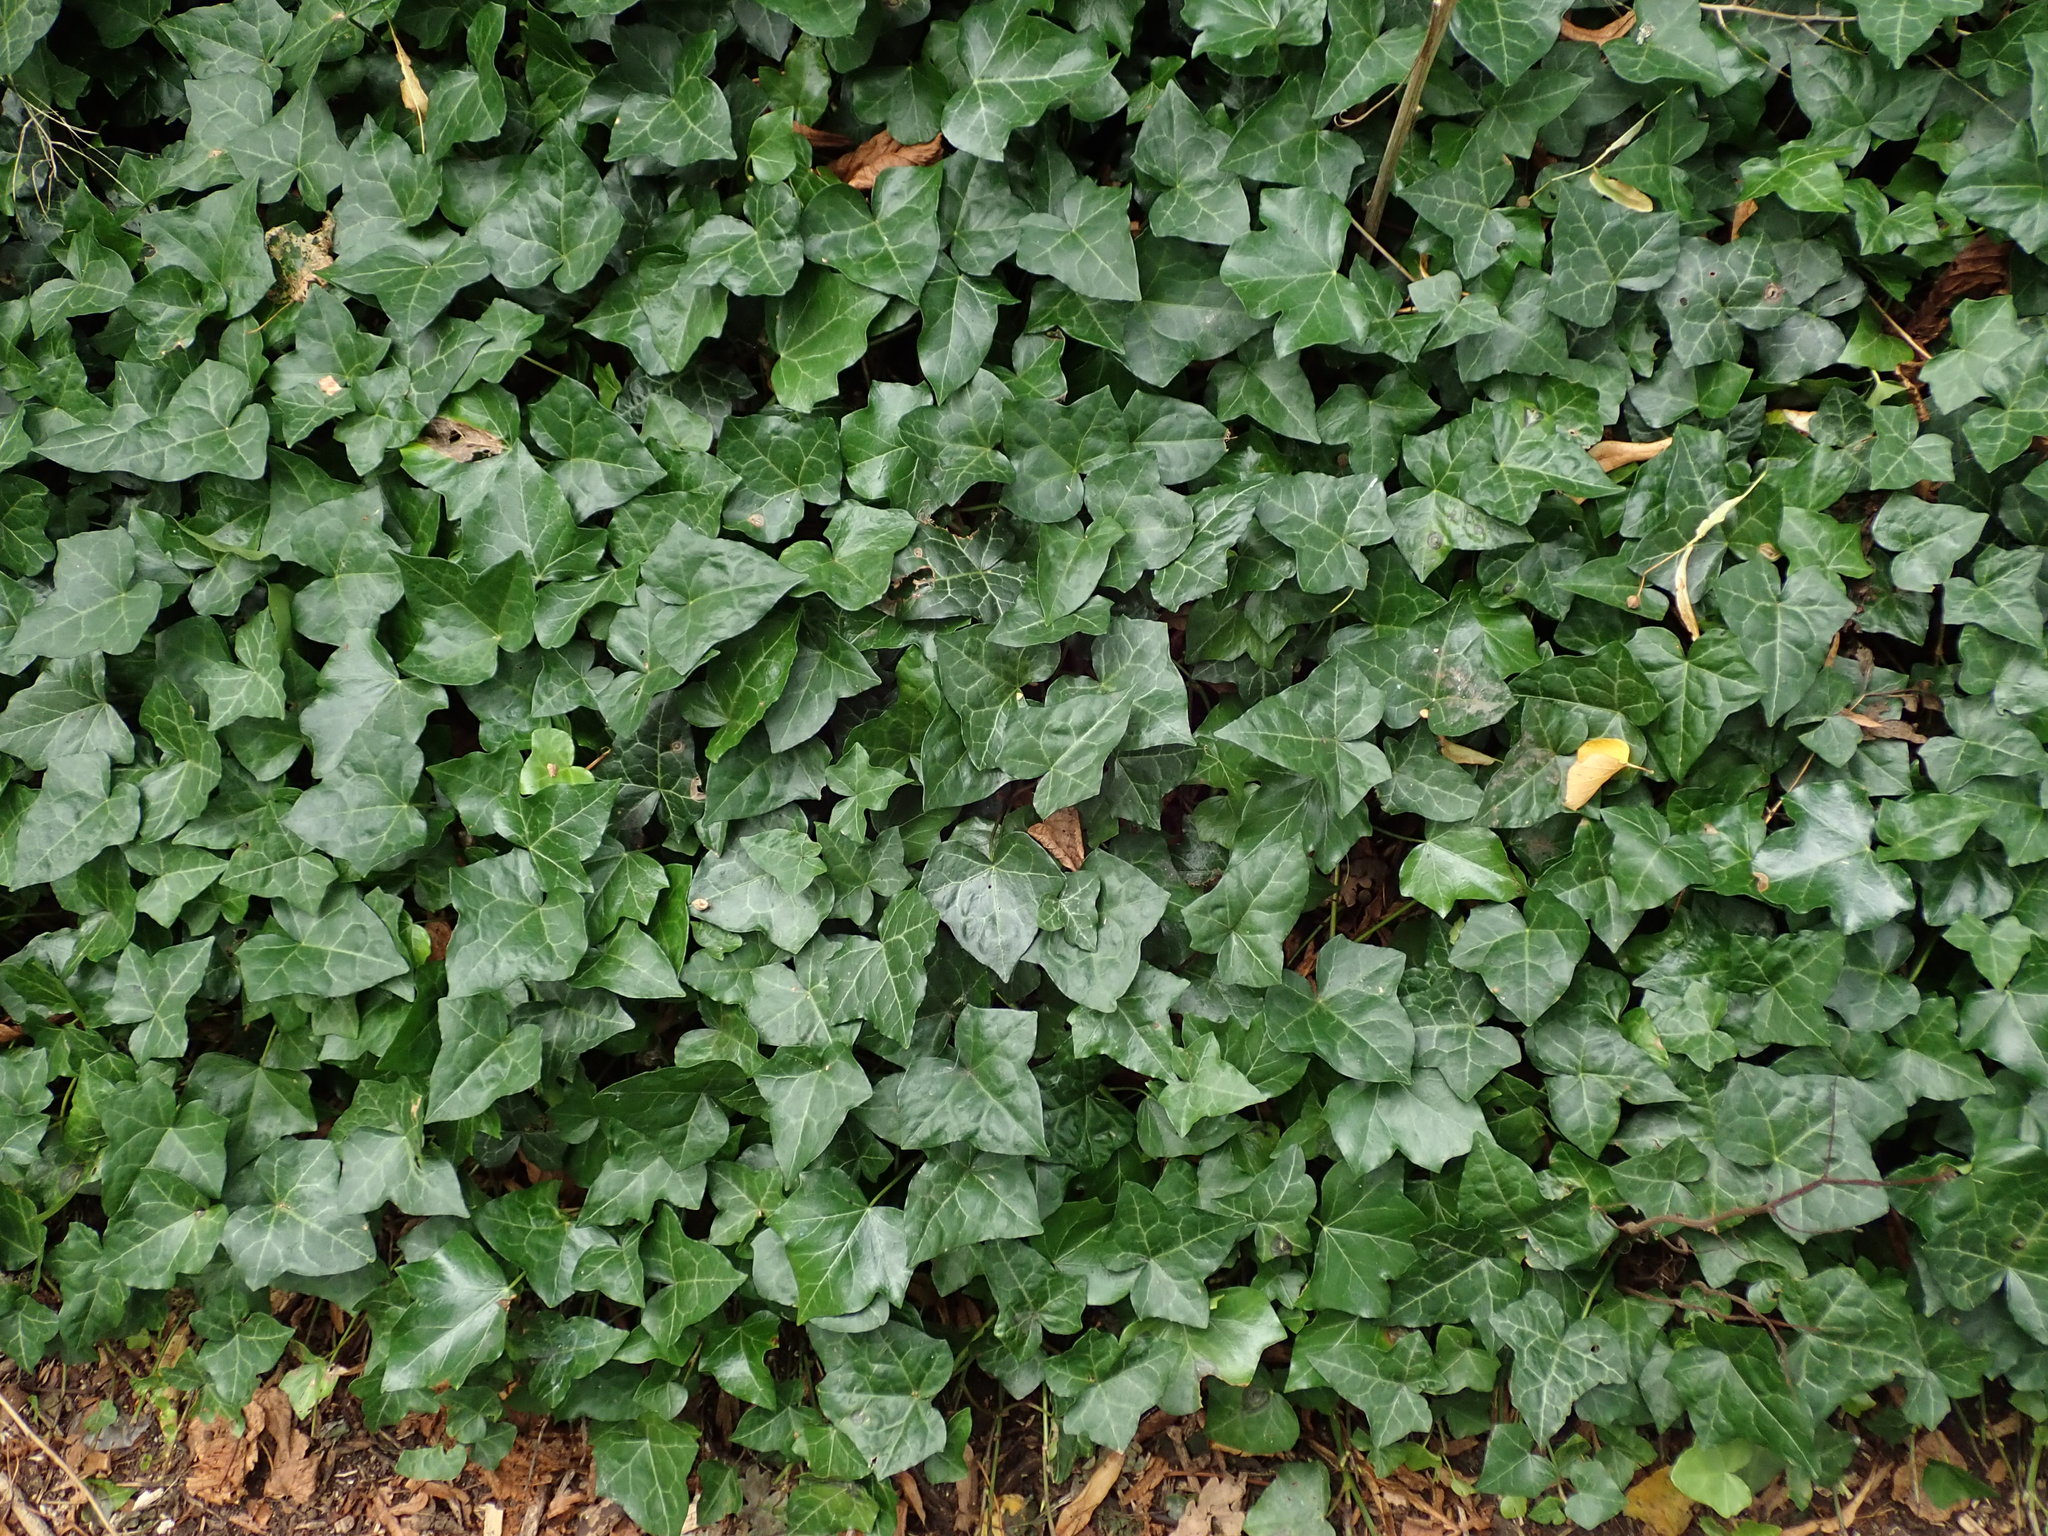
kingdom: Plantae
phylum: Tracheophyta
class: Magnoliopsida
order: Apiales
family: Araliaceae
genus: Hedera
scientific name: Hedera helix
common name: Ivy
